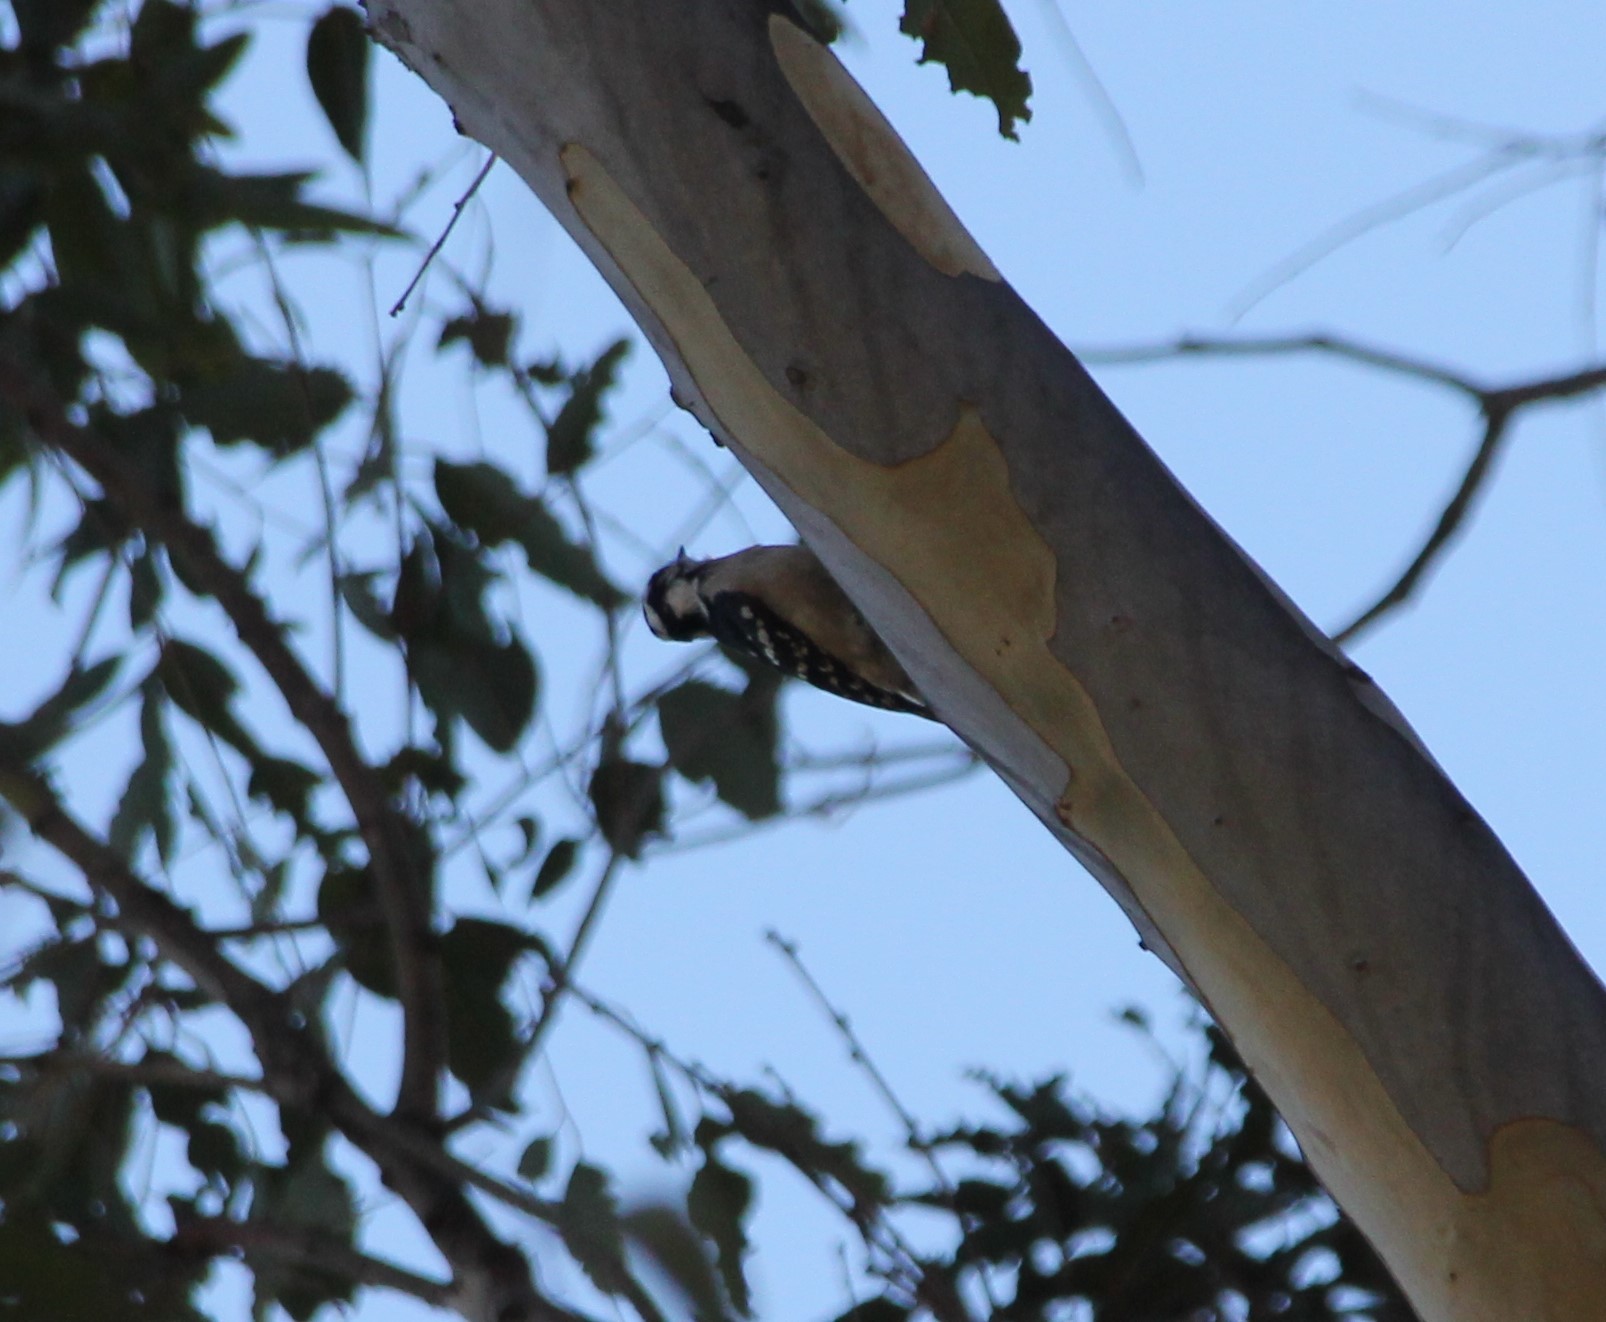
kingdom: Animalia
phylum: Chordata
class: Aves
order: Piciformes
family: Picidae
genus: Dryobates
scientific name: Dryobates pubescens
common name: Downy woodpecker
